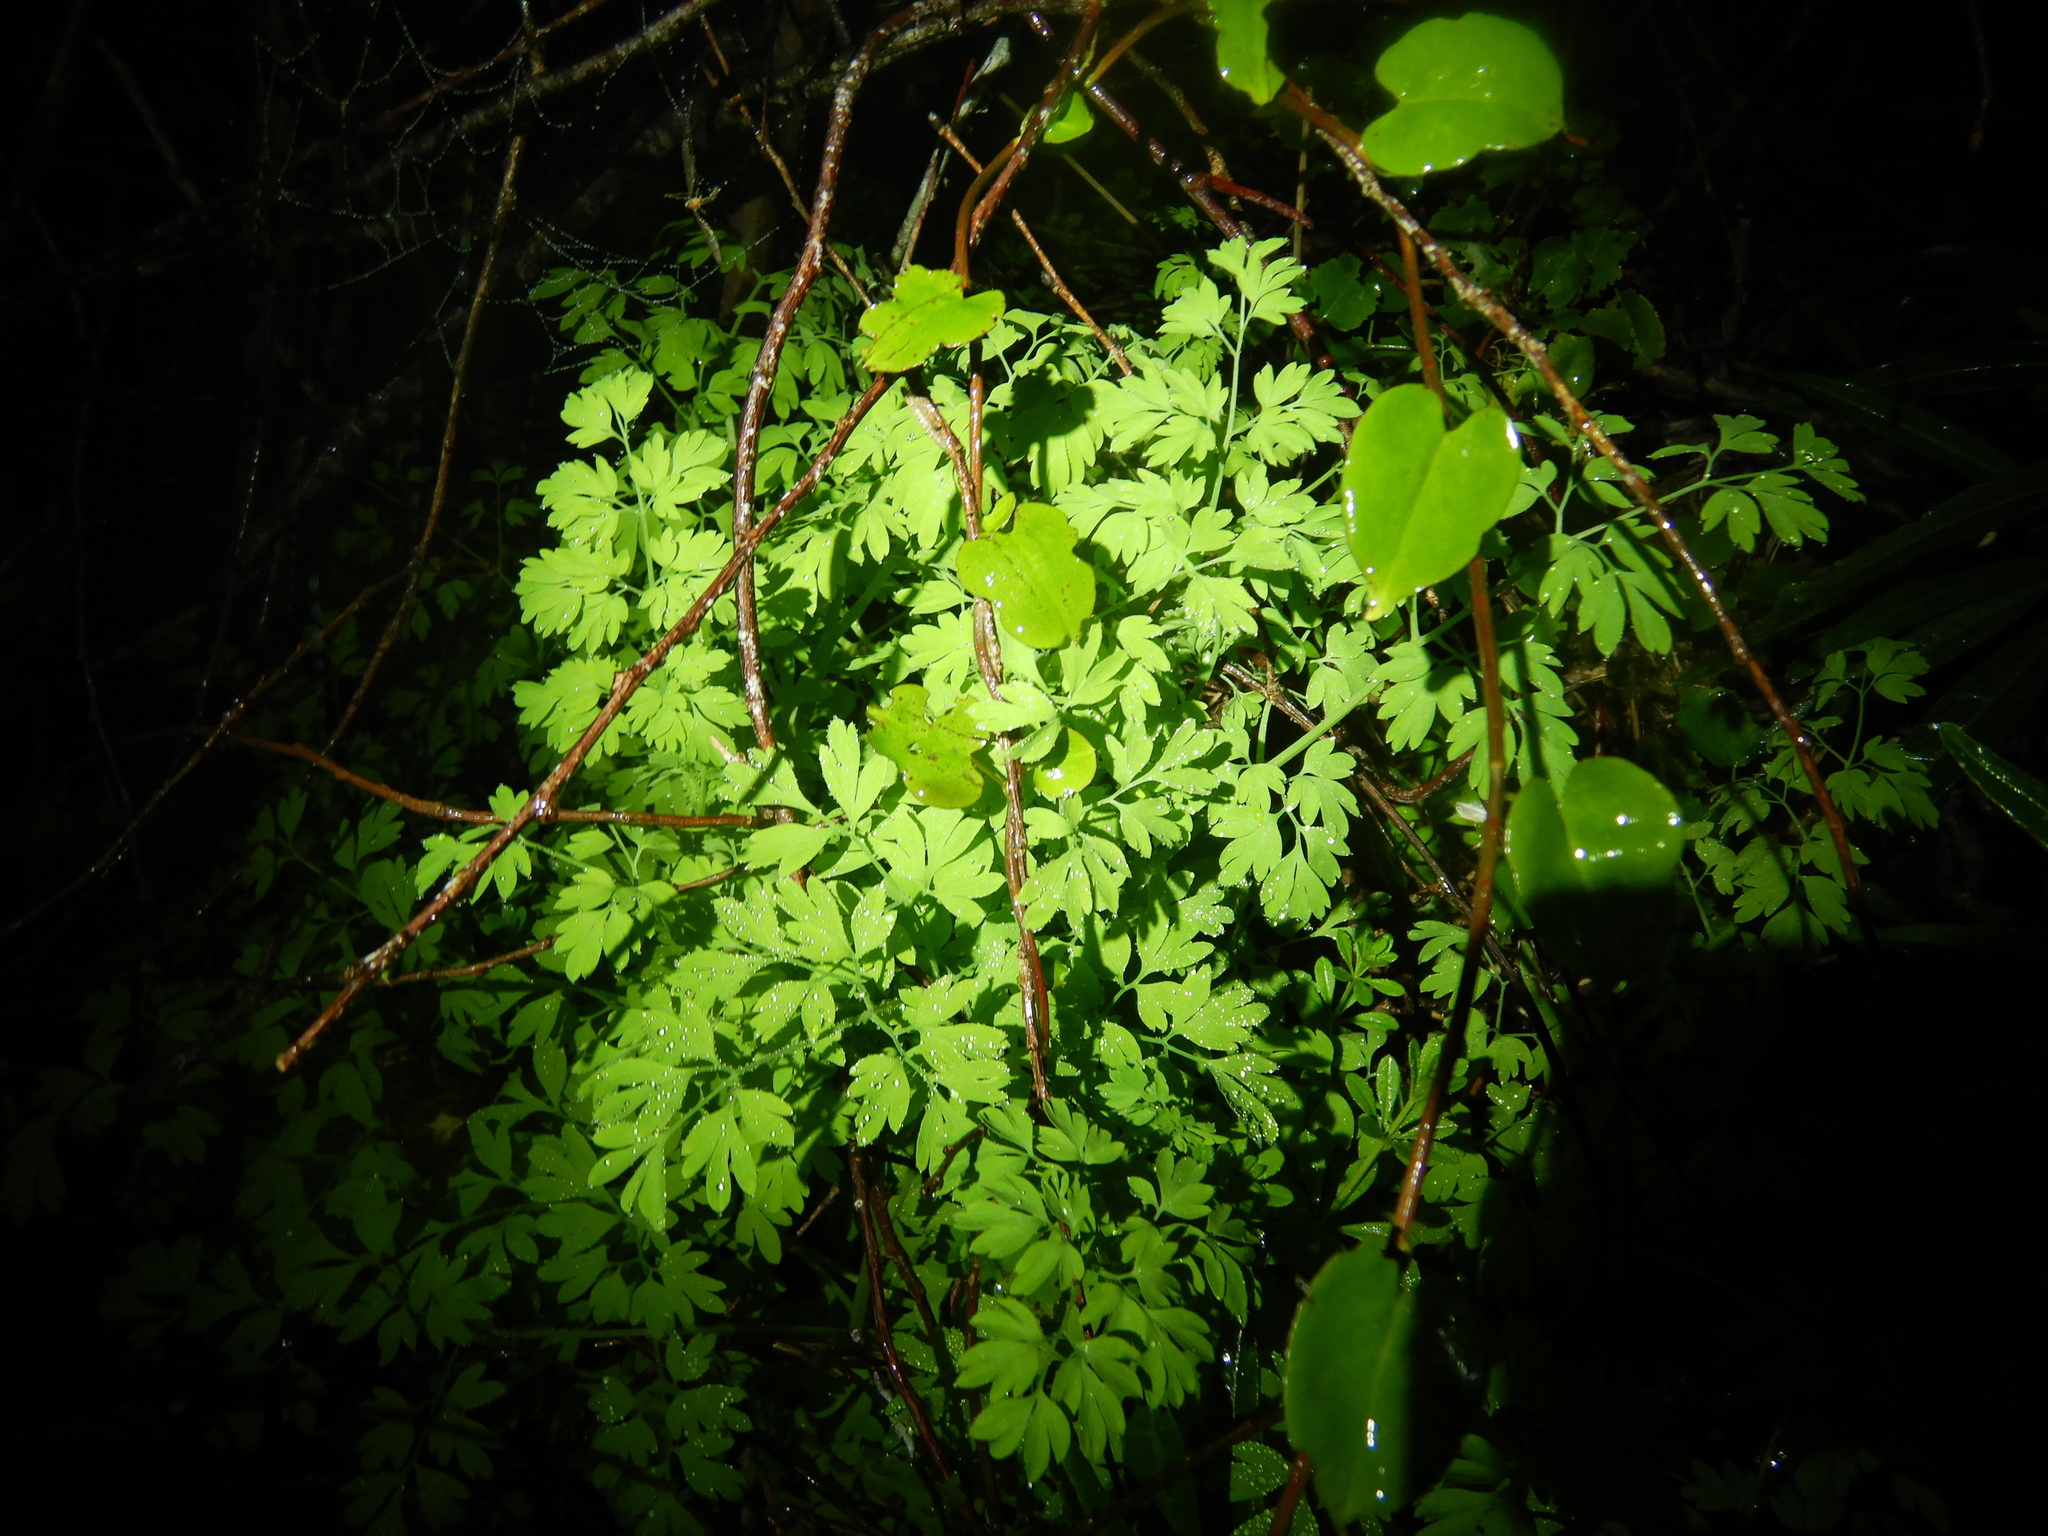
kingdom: Plantae
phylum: Tracheophyta
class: Magnoliopsida
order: Ranunculales
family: Papaveraceae
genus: Fumaria
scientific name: Fumaria muralis
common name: Common ramping-fumitory
